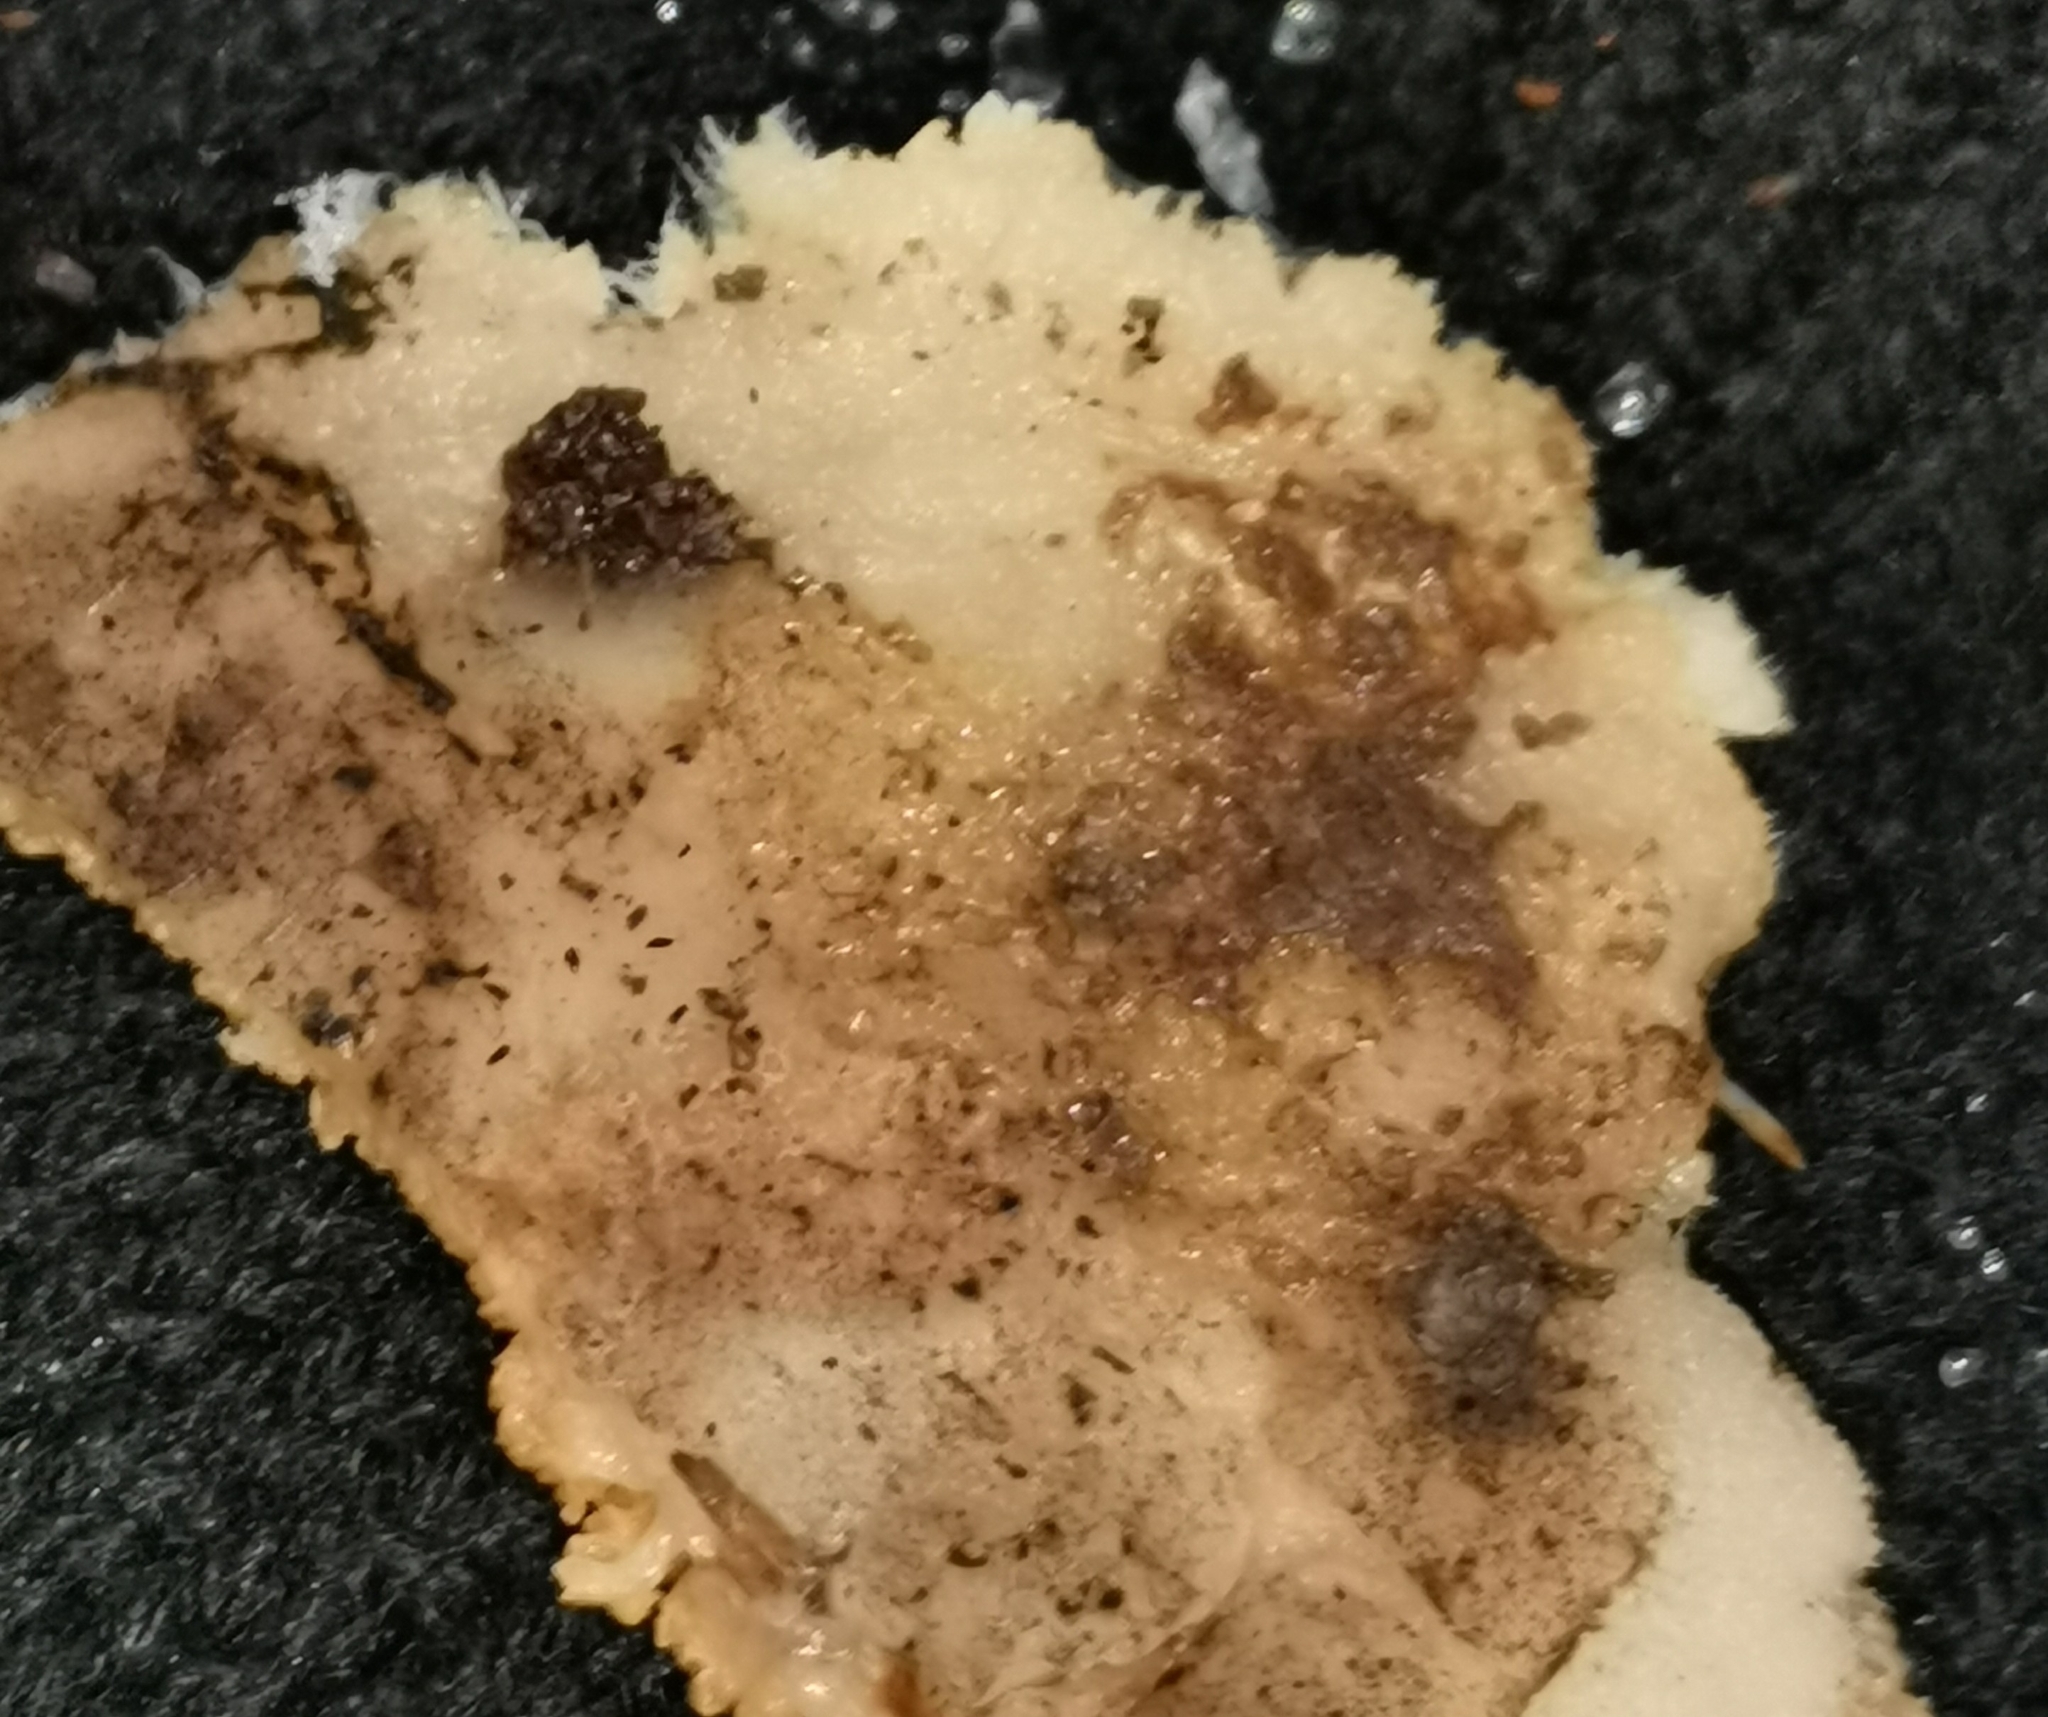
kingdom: Fungi
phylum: Basidiomycota
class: Agaricomycetes
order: Polyporales
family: Meruliaceae
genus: Phlebia
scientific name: Phlebia tremellosa
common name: Jelly rot
